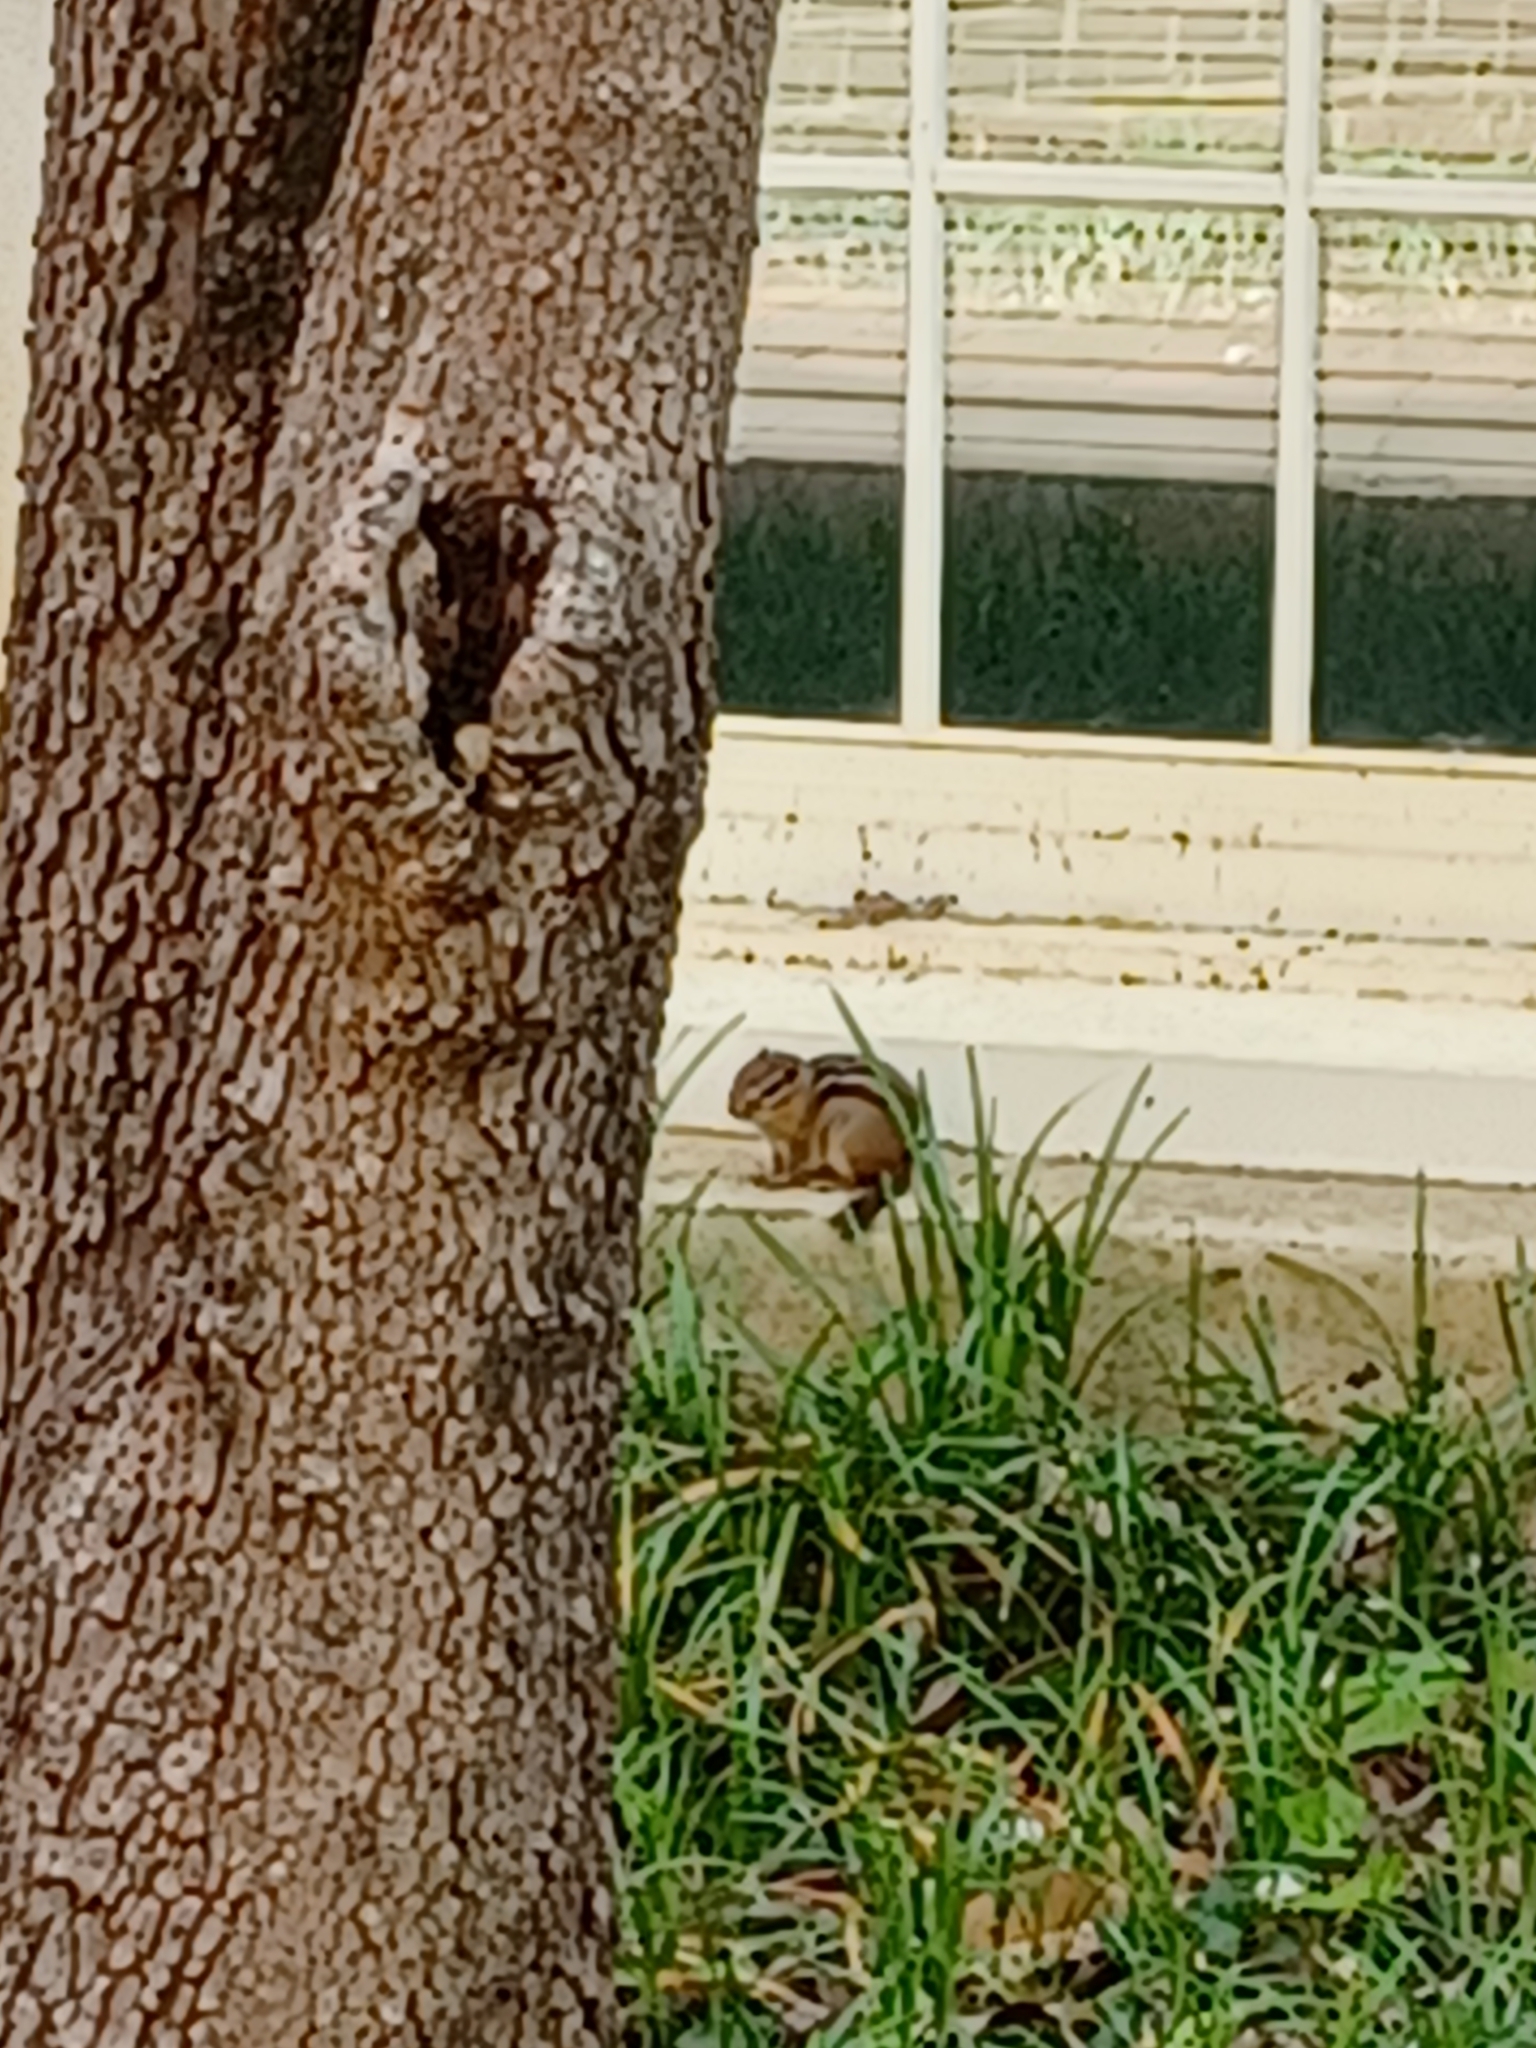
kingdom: Animalia
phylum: Chordata
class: Mammalia
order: Rodentia
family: Sciuridae
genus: Tamias
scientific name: Tamias striatus
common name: Eastern chipmunk
